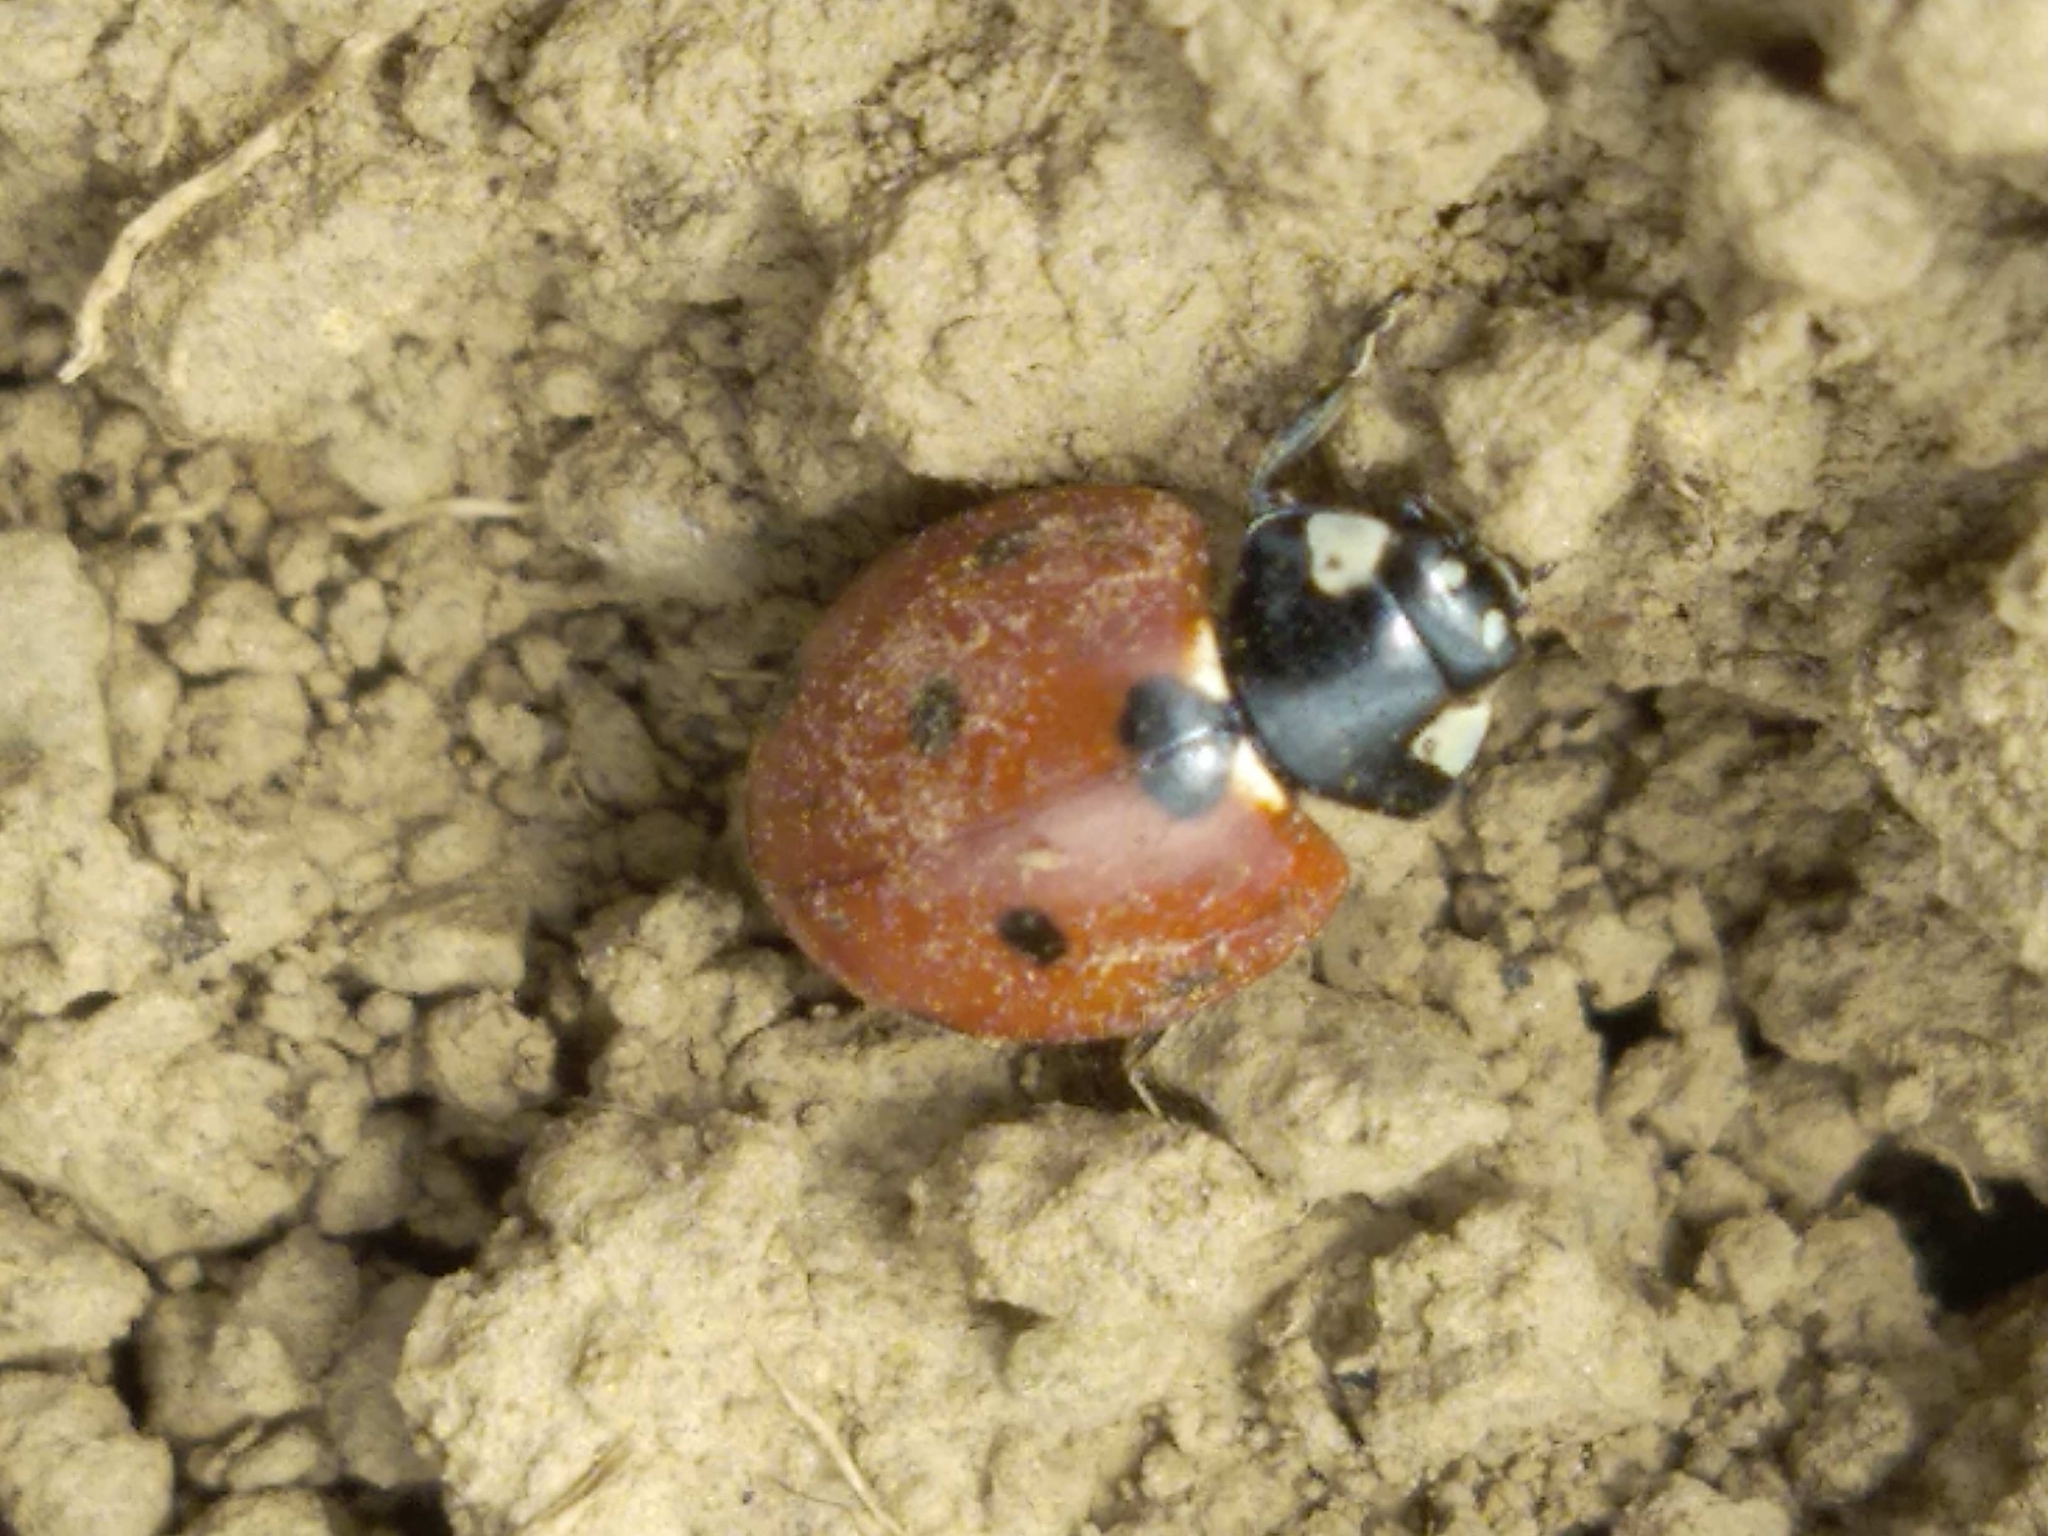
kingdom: Animalia
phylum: Arthropoda
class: Insecta
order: Coleoptera
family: Coccinellidae
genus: Coccinella
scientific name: Coccinella septempunctata
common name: Sevenspotted lady beetle
